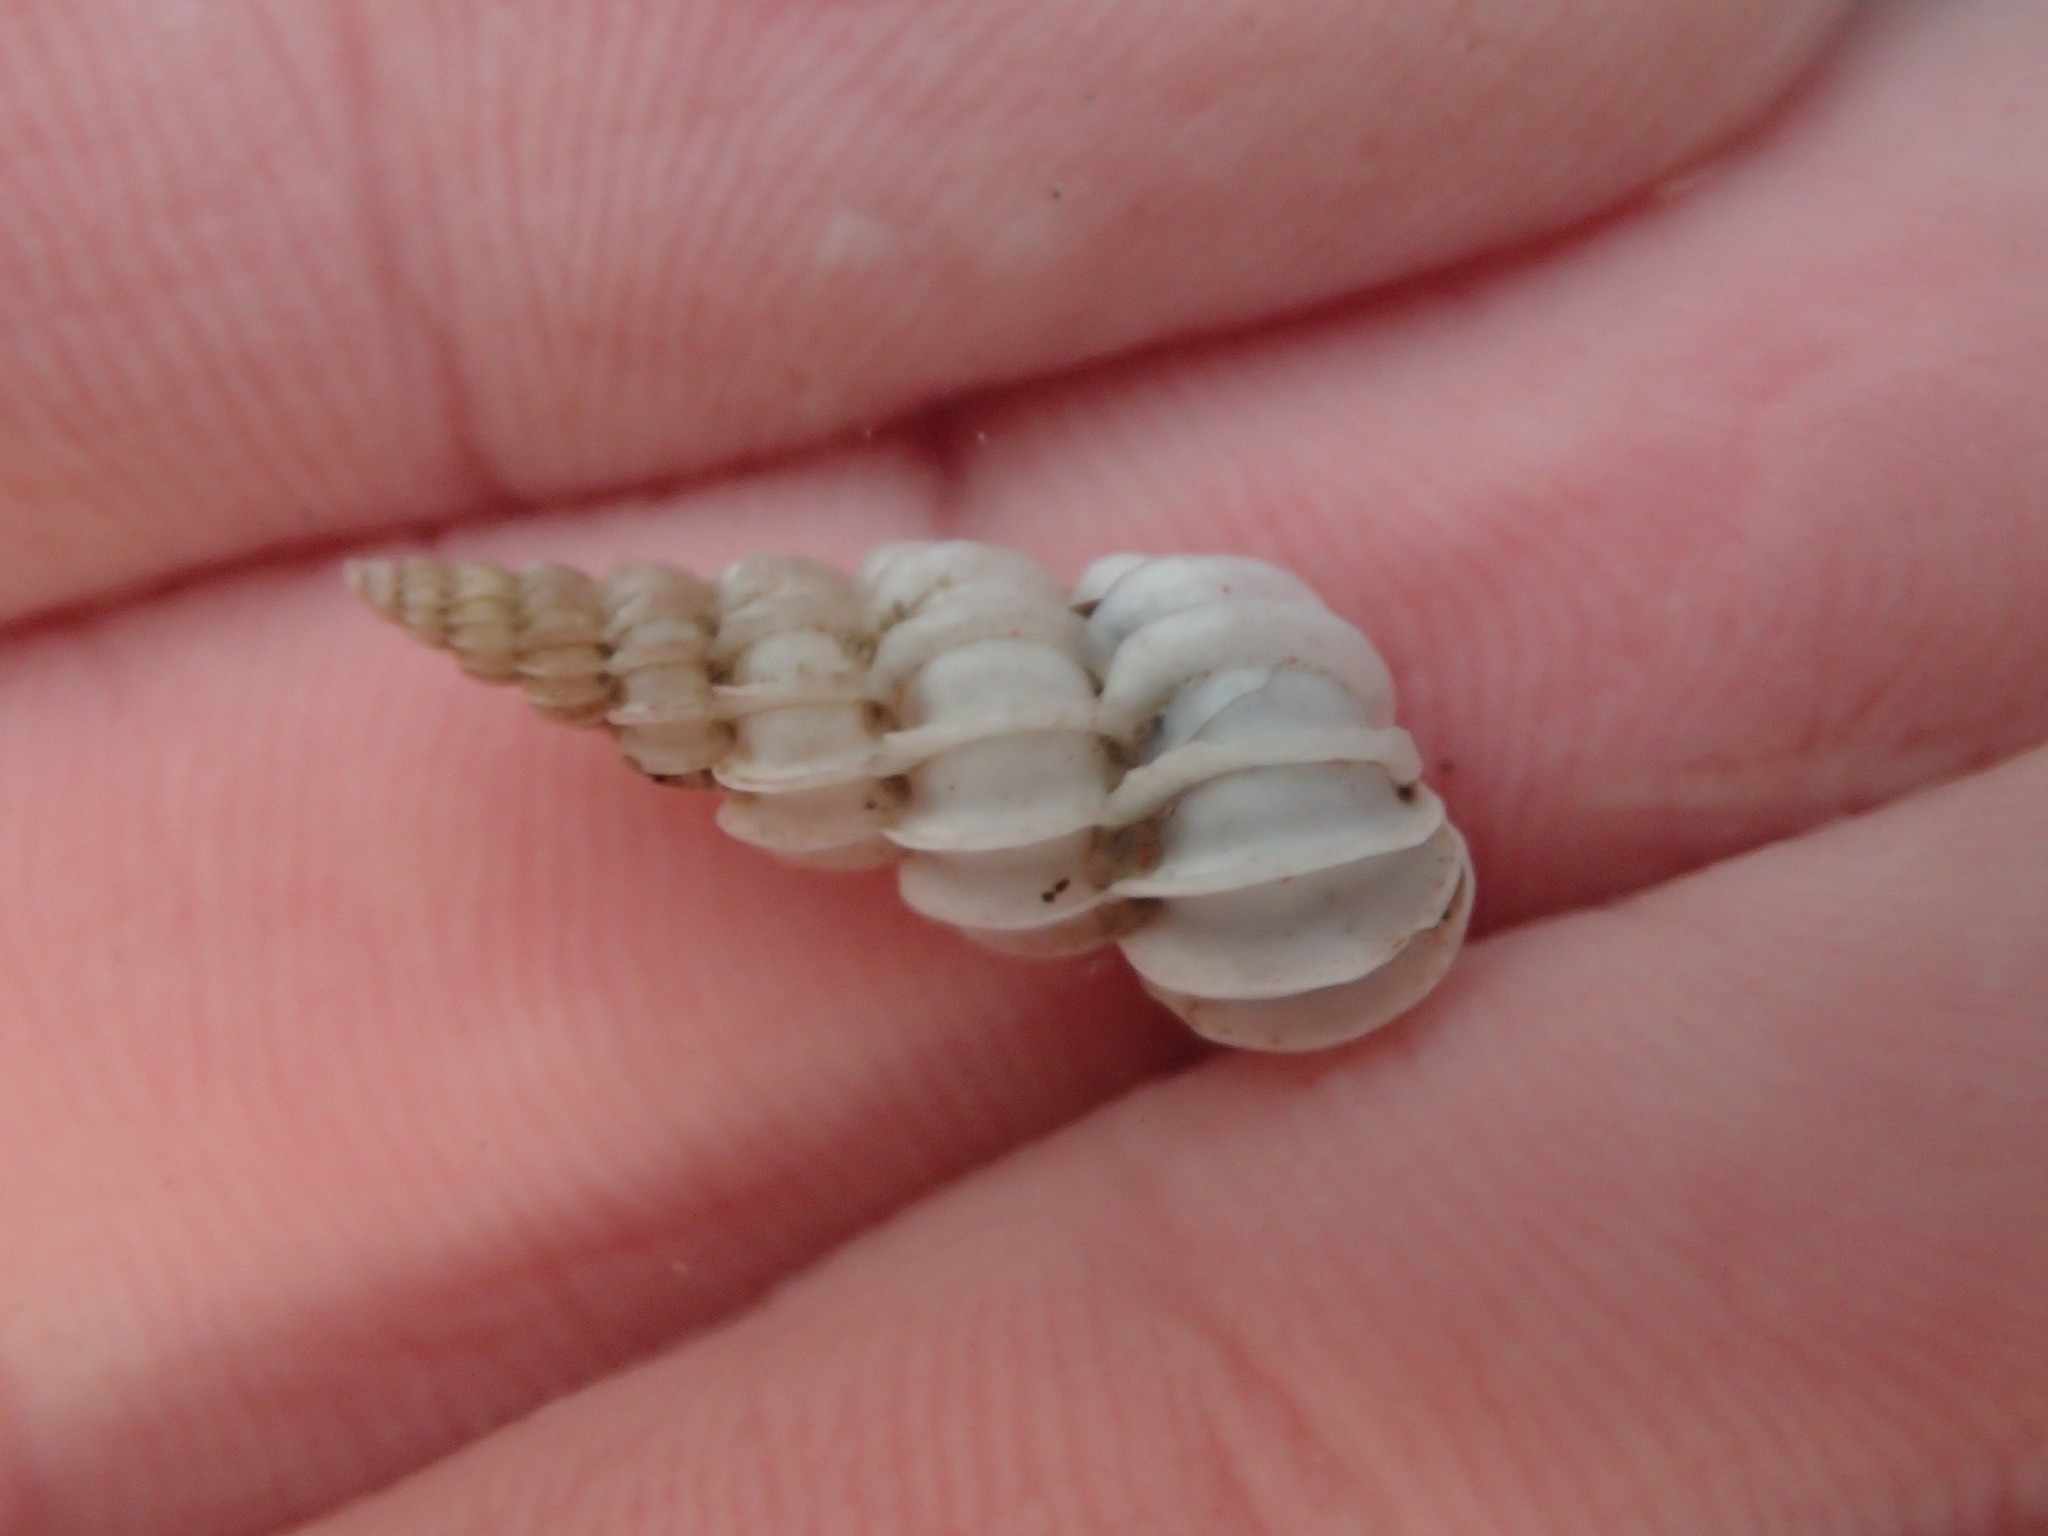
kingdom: Animalia
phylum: Mollusca
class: Gastropoda
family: Epitoniidae
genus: Epitonium
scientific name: Epitonium tinctum
